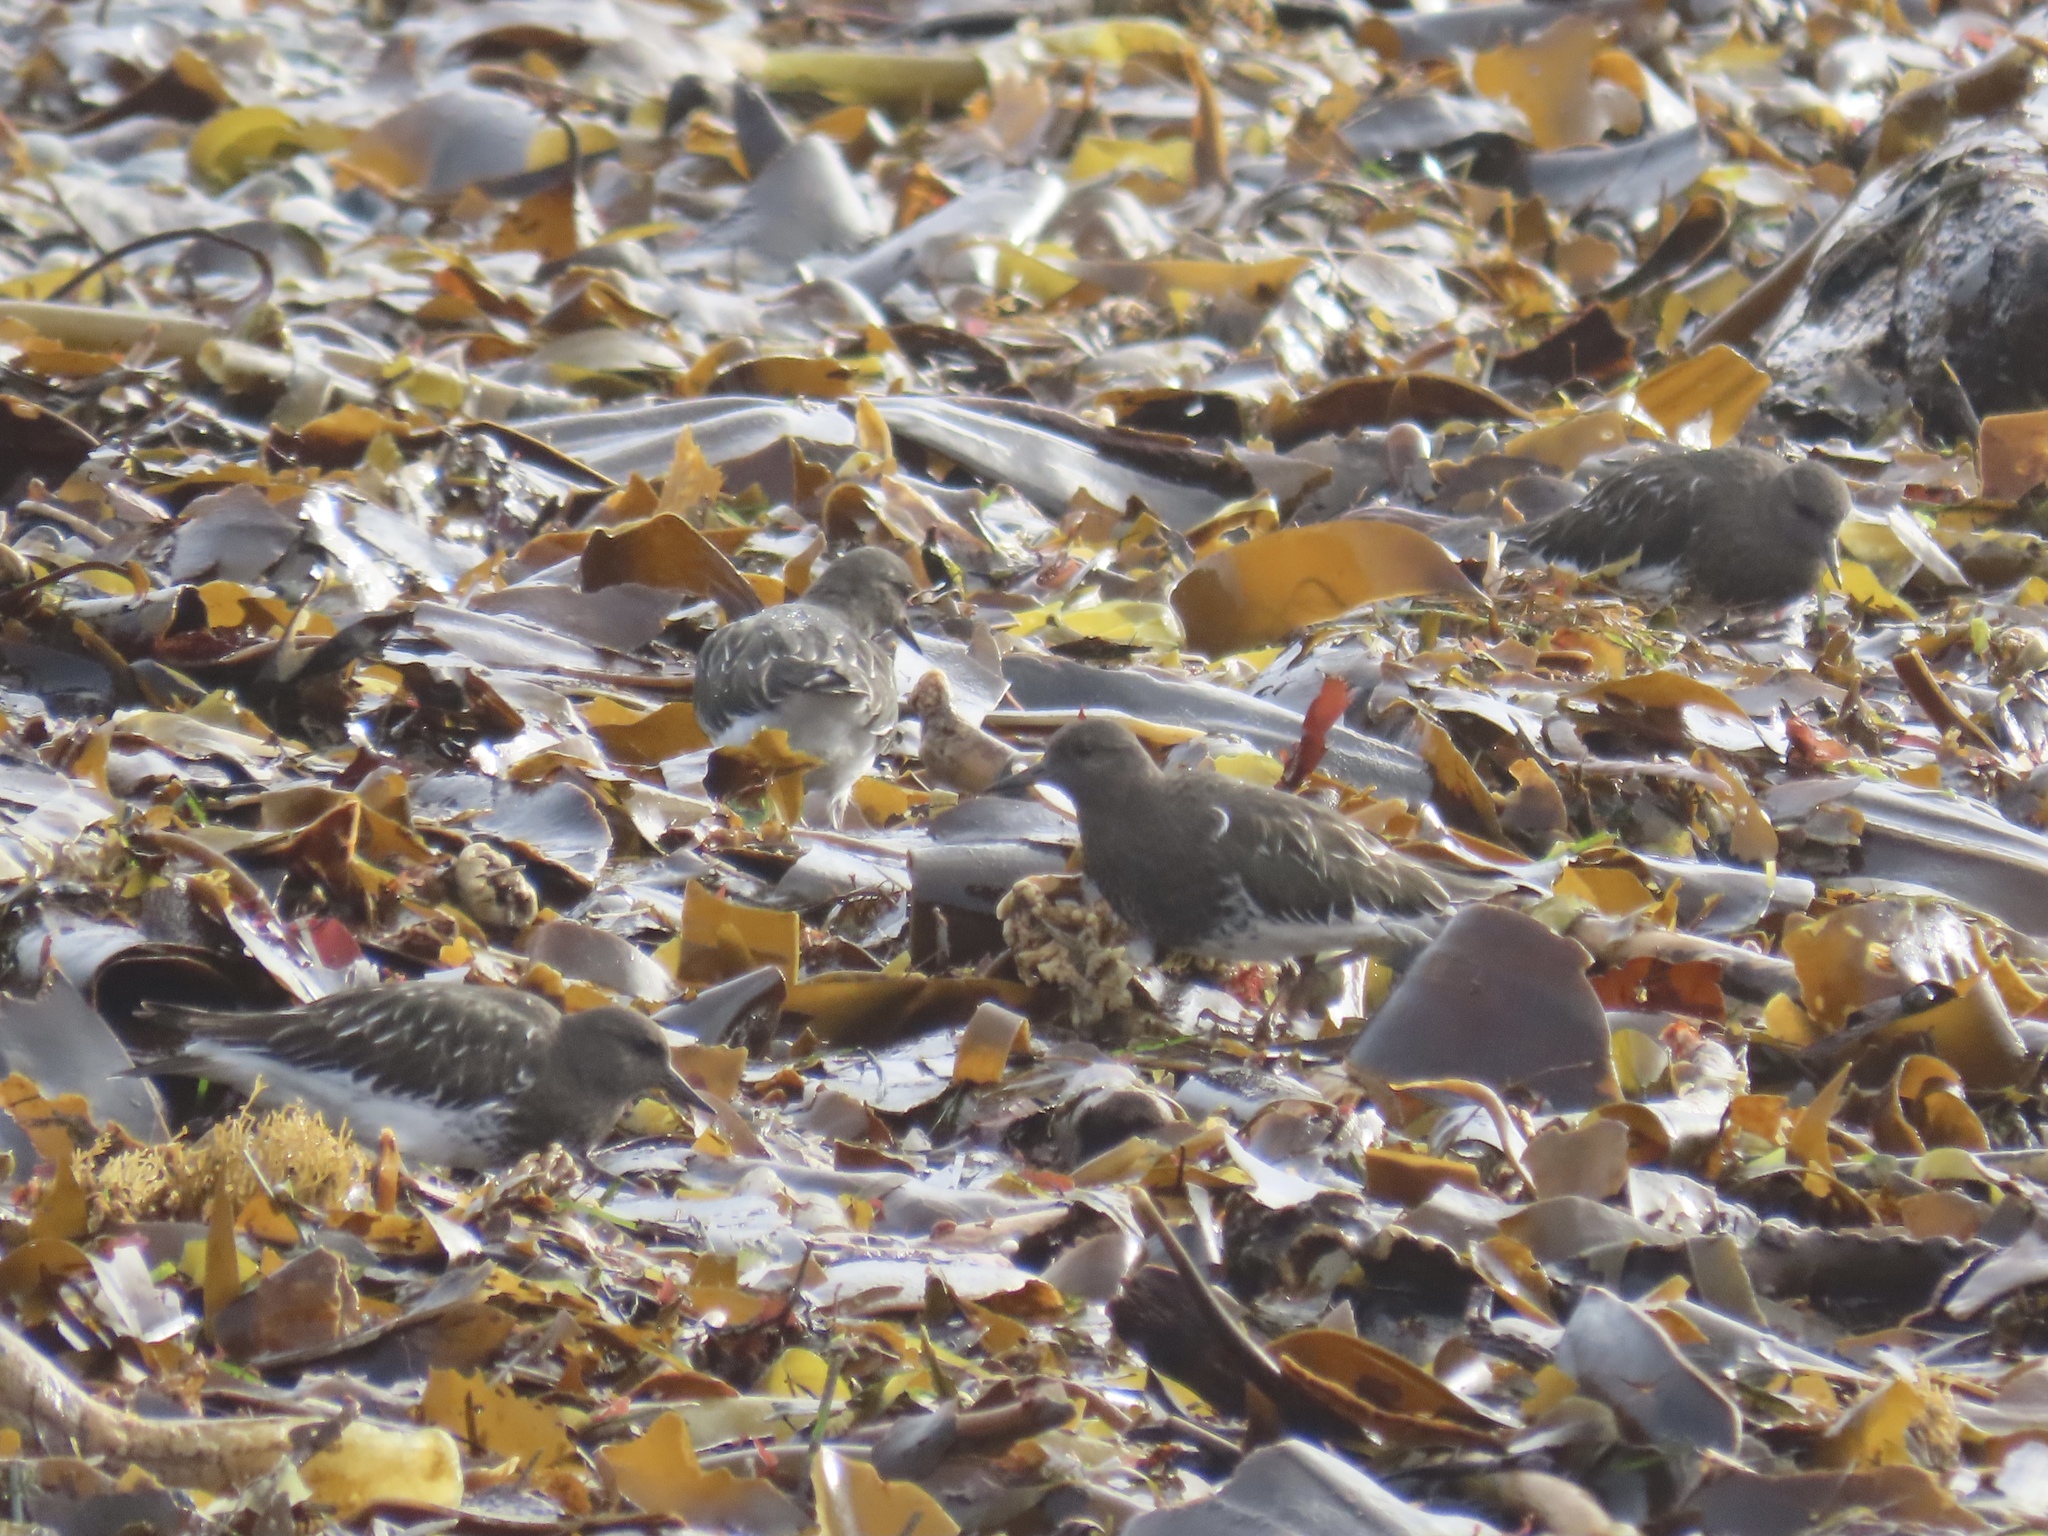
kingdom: Animalia
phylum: Chordata
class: Aves
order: Charadriiformes
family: Scolopacidae
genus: Arenaria
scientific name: Arenaria melanocephala
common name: Black turnstone
